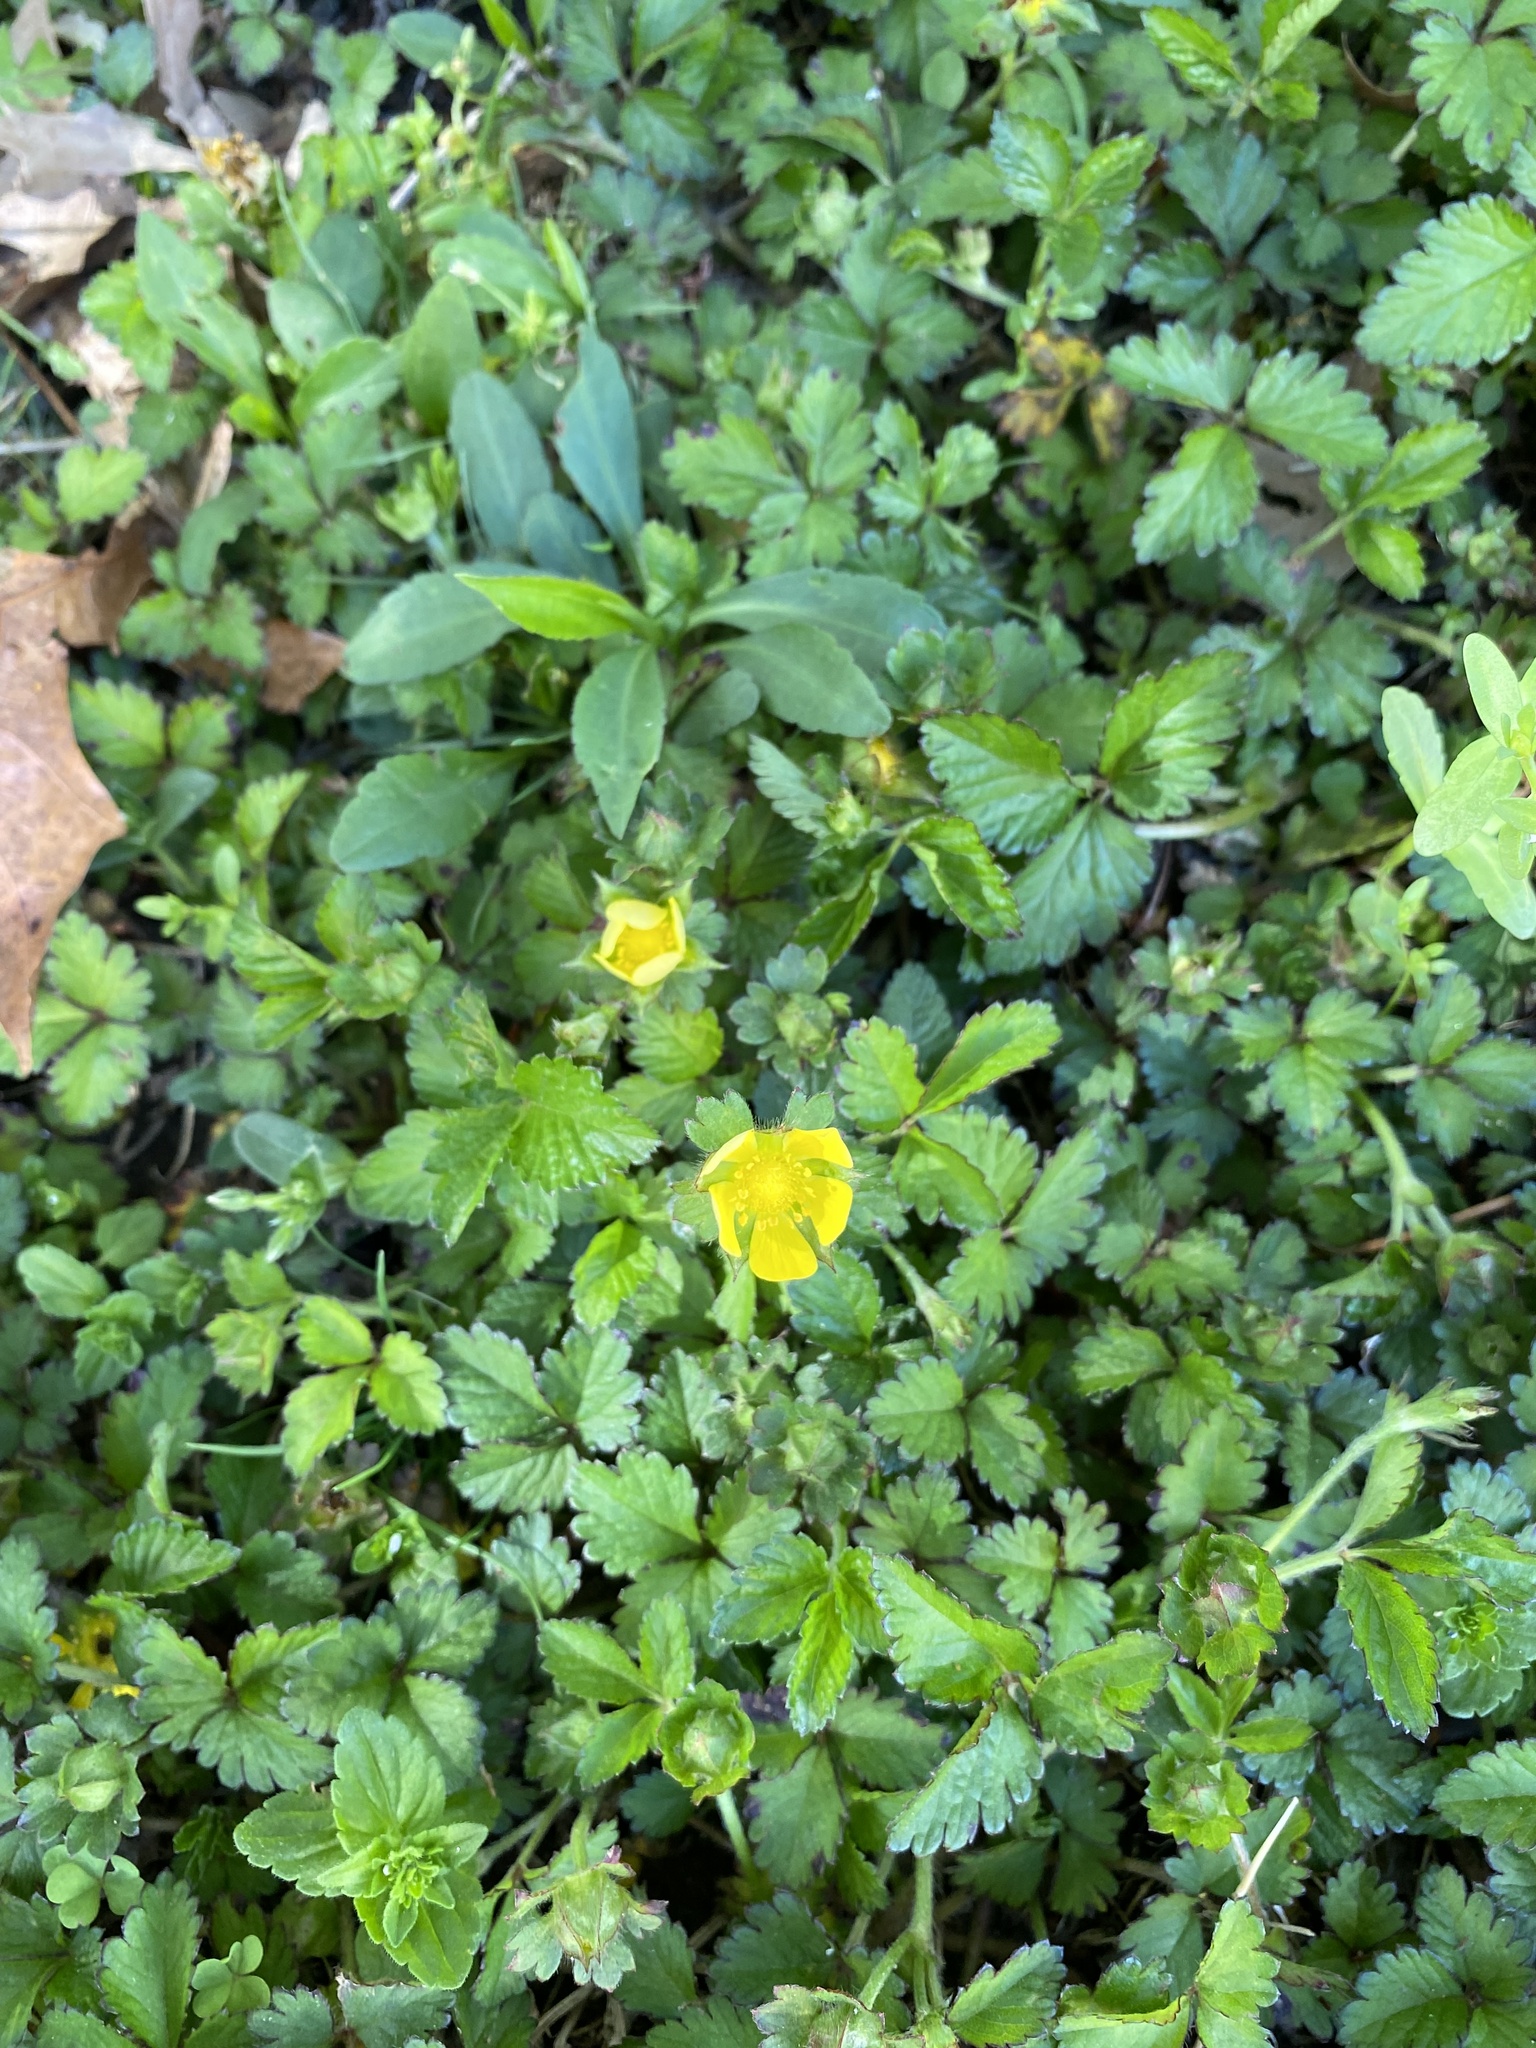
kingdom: Plantae
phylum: Tracheophyta
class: Magnoliopsida
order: Rosales
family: Rosaceae
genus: Potentilla
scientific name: Potentilla indica
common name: Yellow-flowered strawberry
